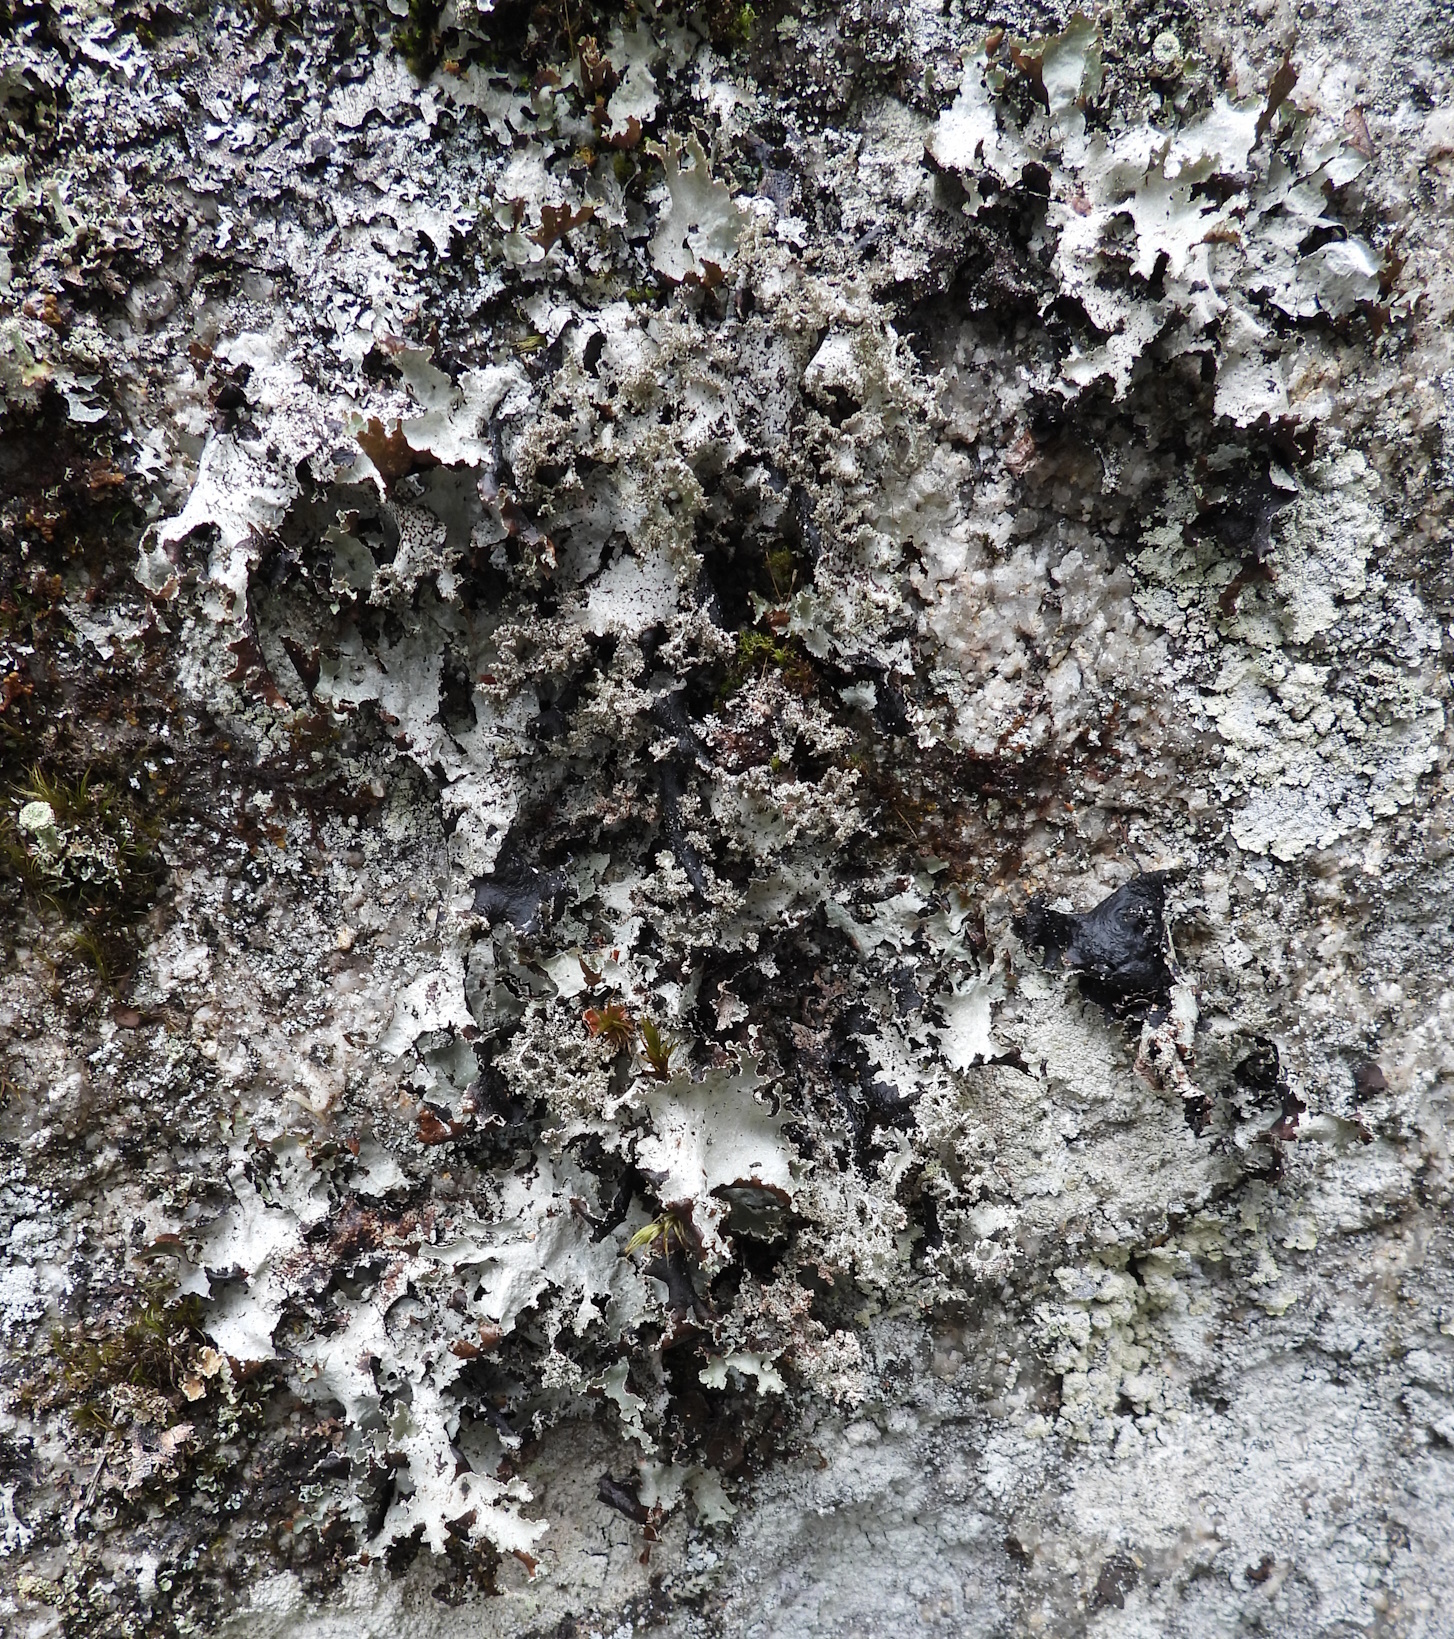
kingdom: Fungi
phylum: Ascomycota
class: Lecanoromycetes
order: Lecanorales
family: Parmeliaceae
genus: Platismatia
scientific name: Platismatia glauca
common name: Varied rag lichen
